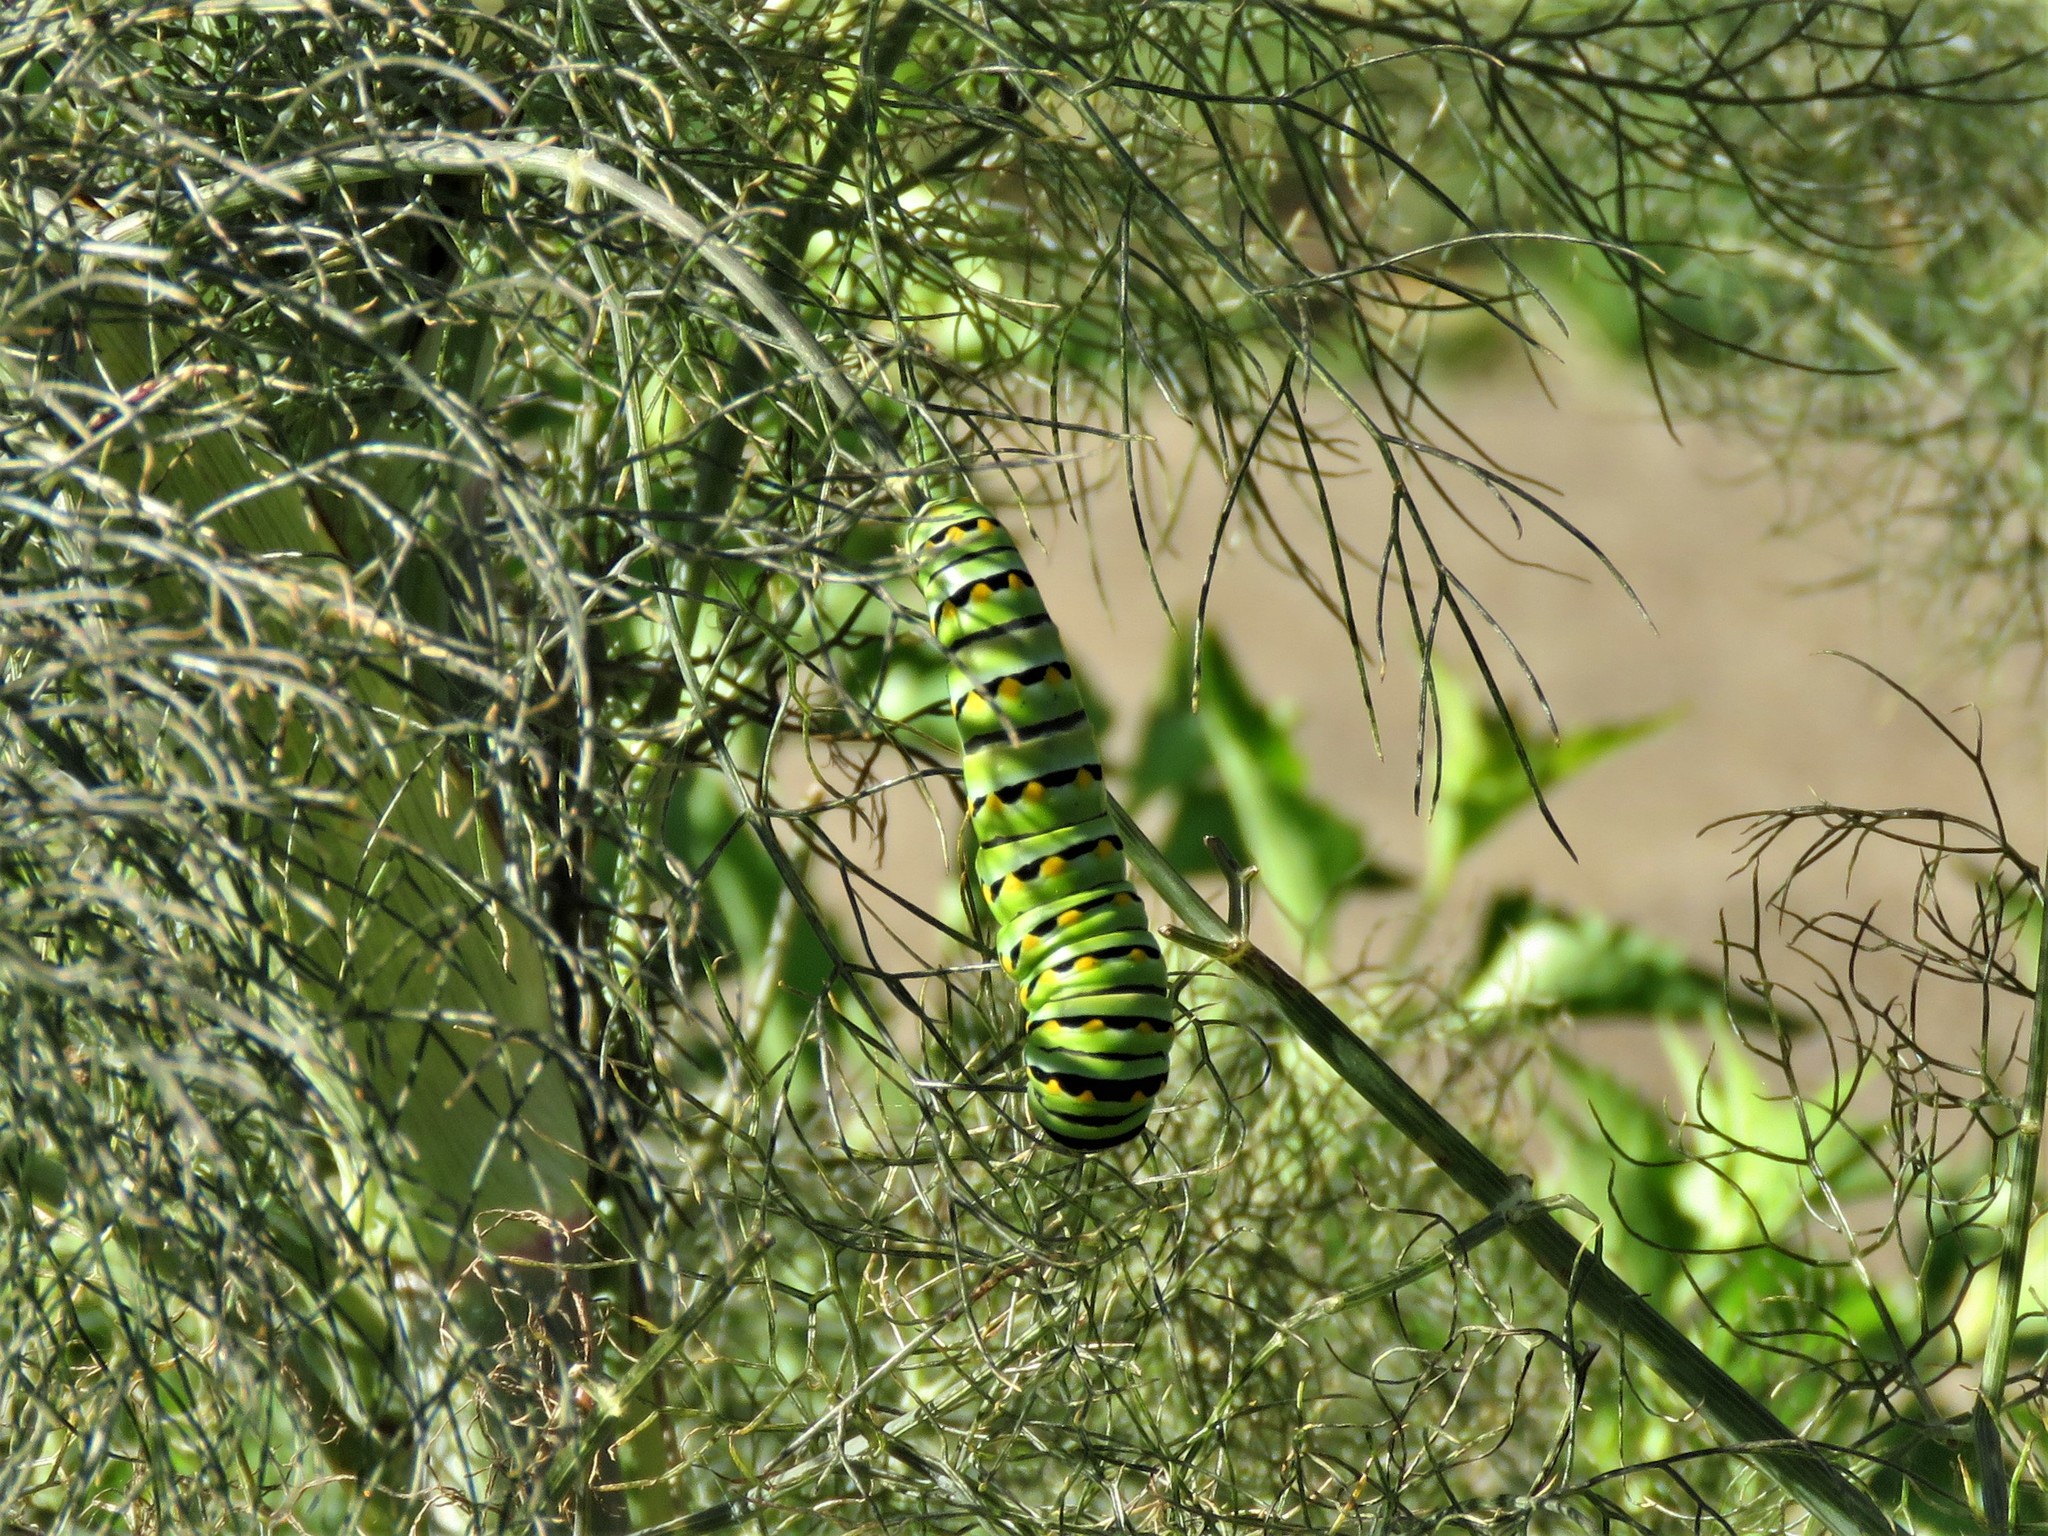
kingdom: Animalia
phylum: Arthropoda
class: Insecta
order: Lepidoptera
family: Papilionidae
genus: Papilio
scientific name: Papilio polyxenes
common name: Black swallowtail
